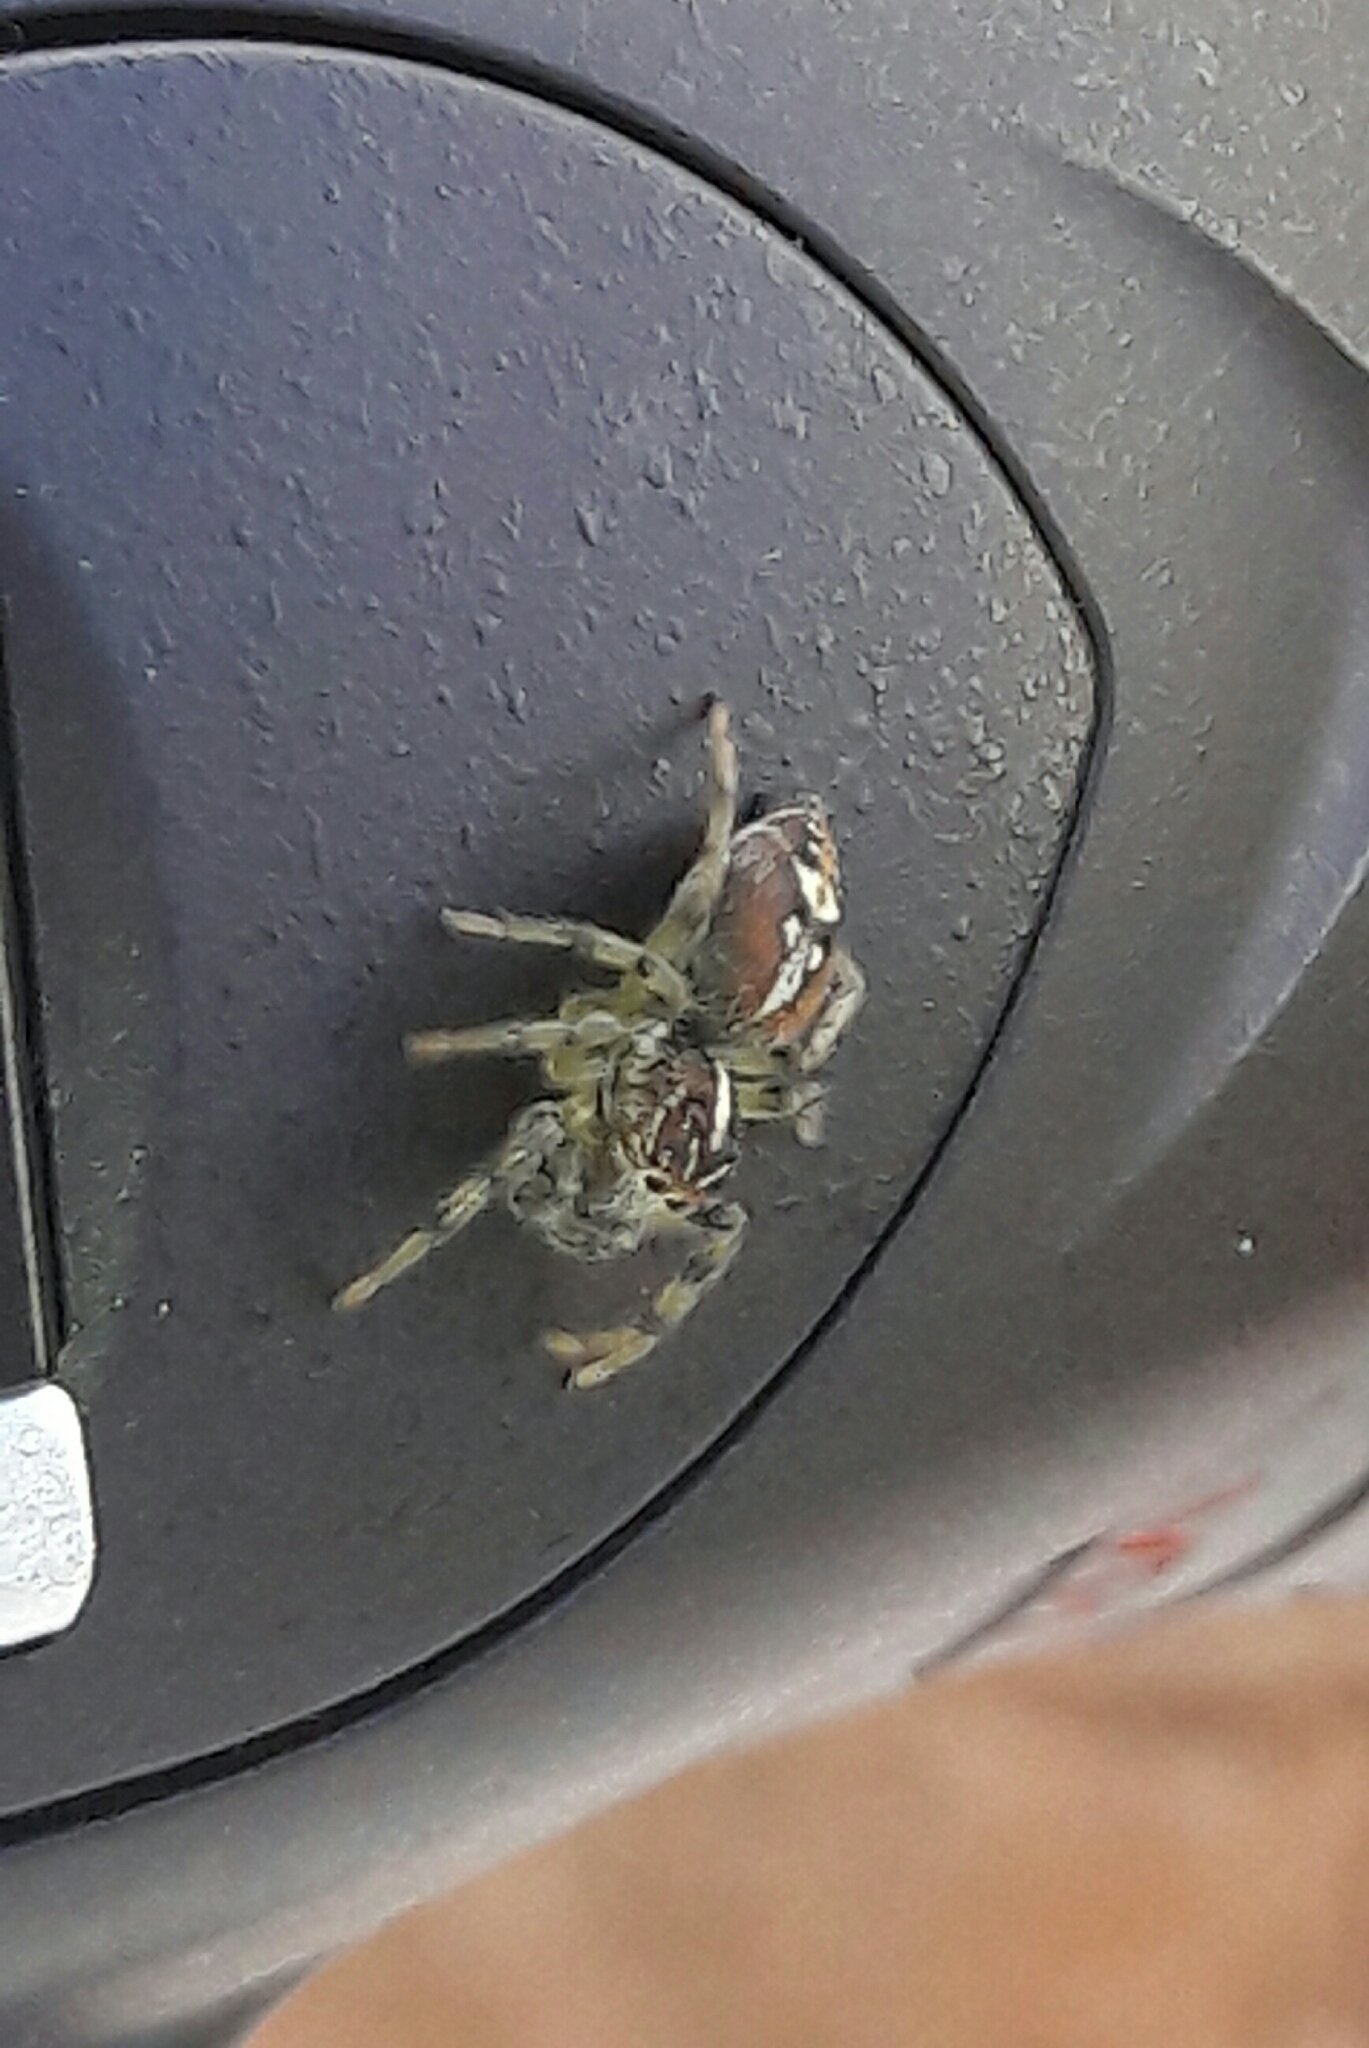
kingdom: Animalia
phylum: Arthropoda
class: Arachnida
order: Araneae
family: Salticidae
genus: Frigga
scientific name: Frigga quintensis
